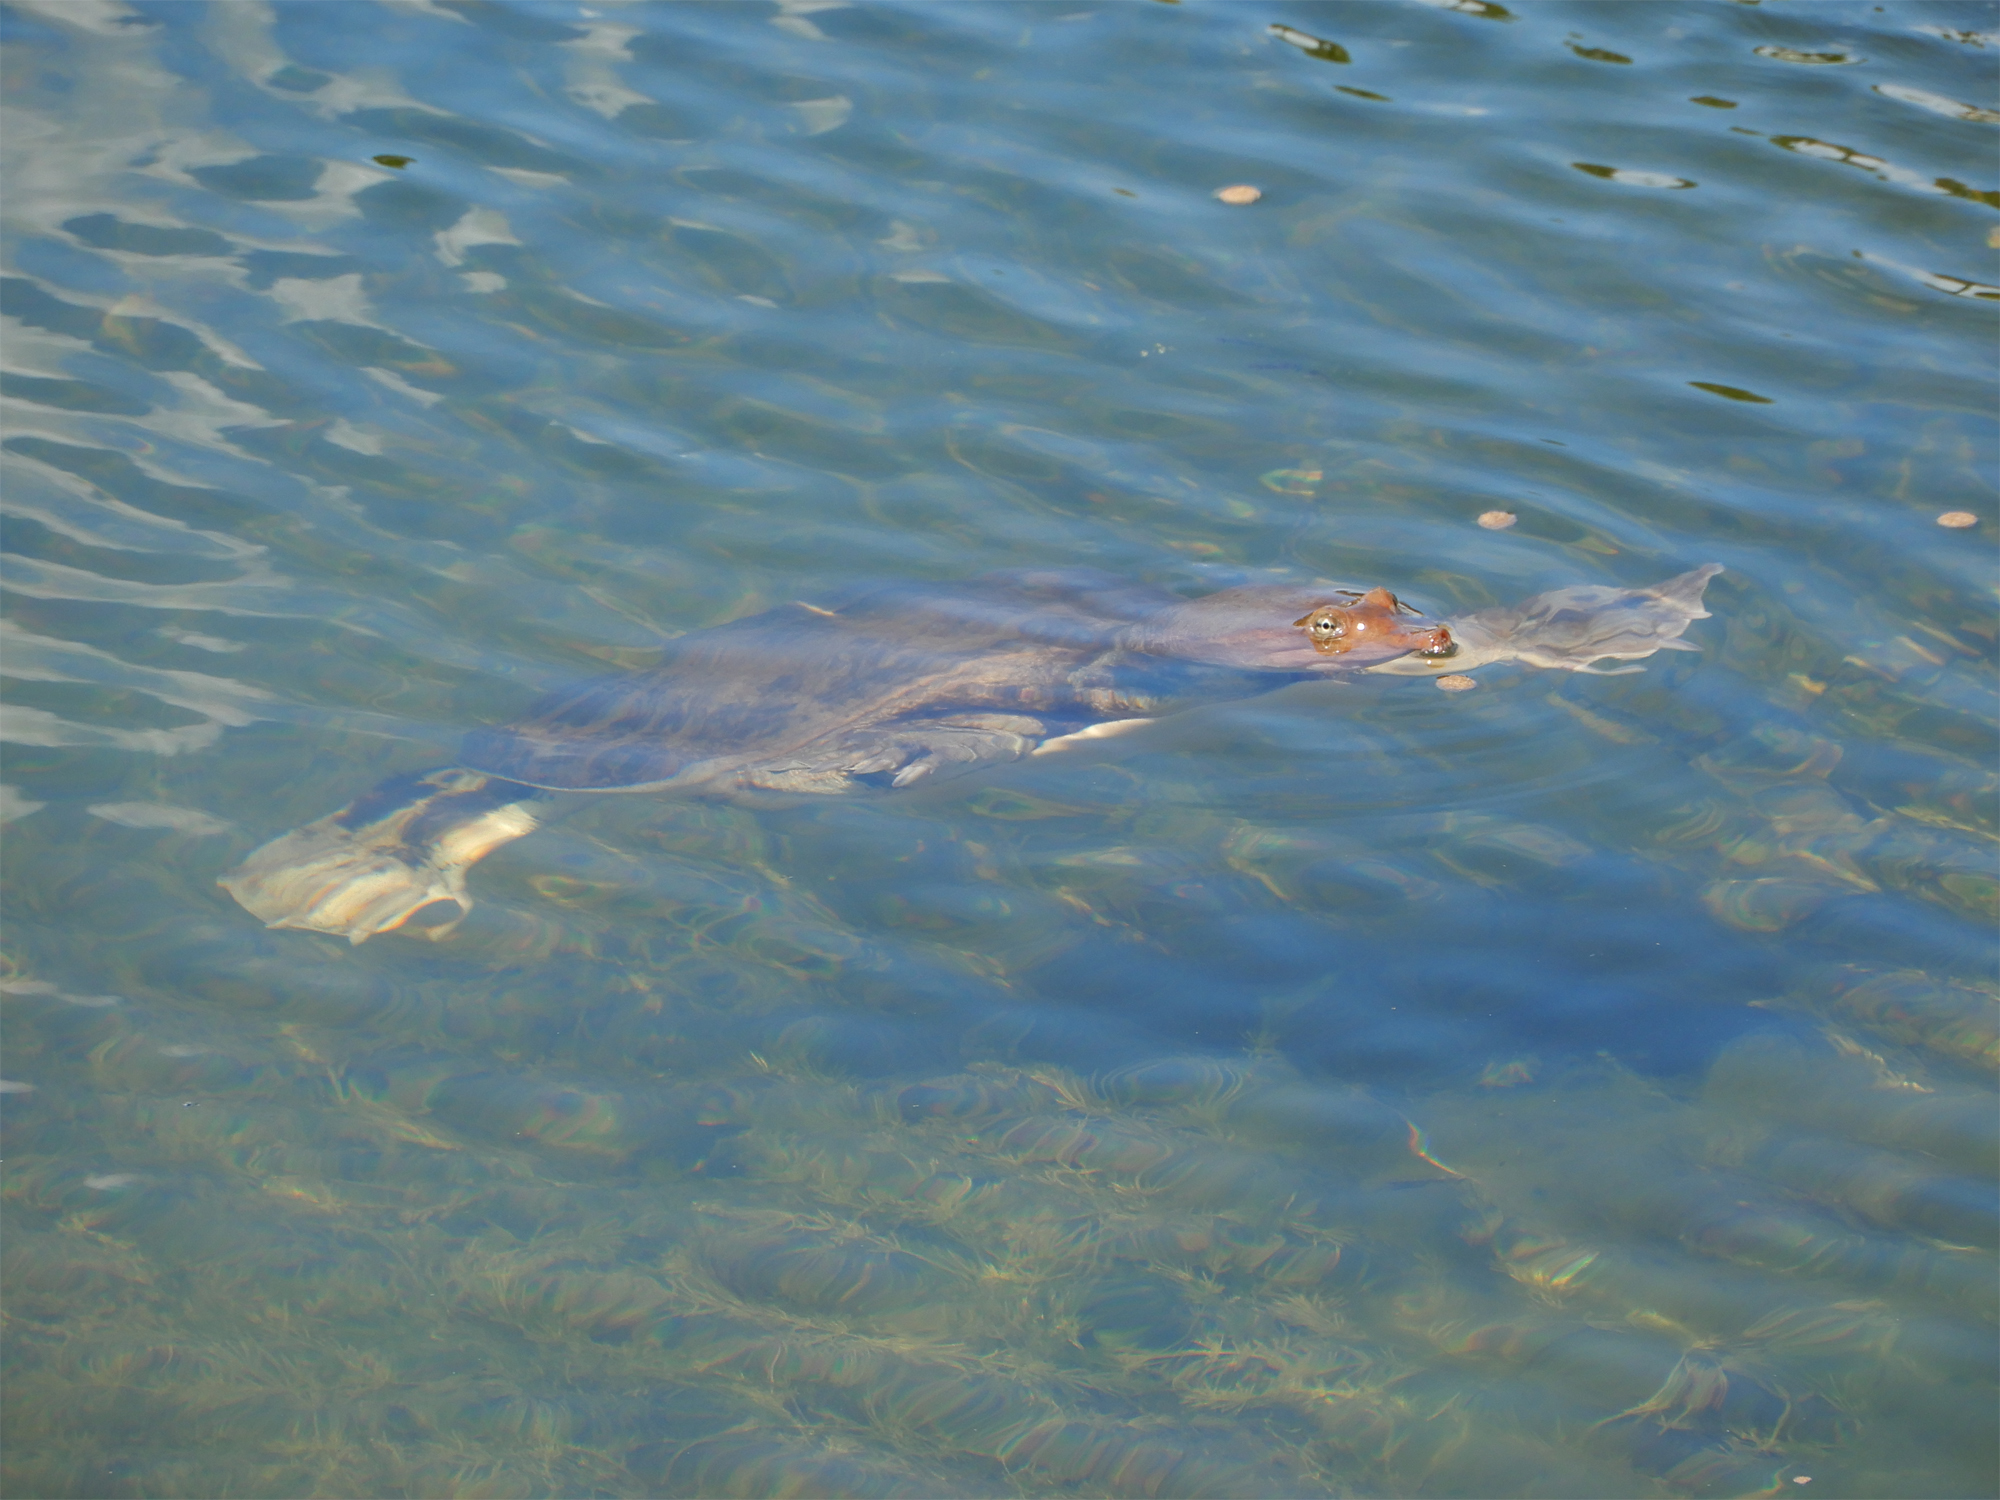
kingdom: Animalia
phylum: Chordata
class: Testudines
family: Trionychidae
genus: Apalone
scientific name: Apalone ferox
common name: Florida softshell turtle
